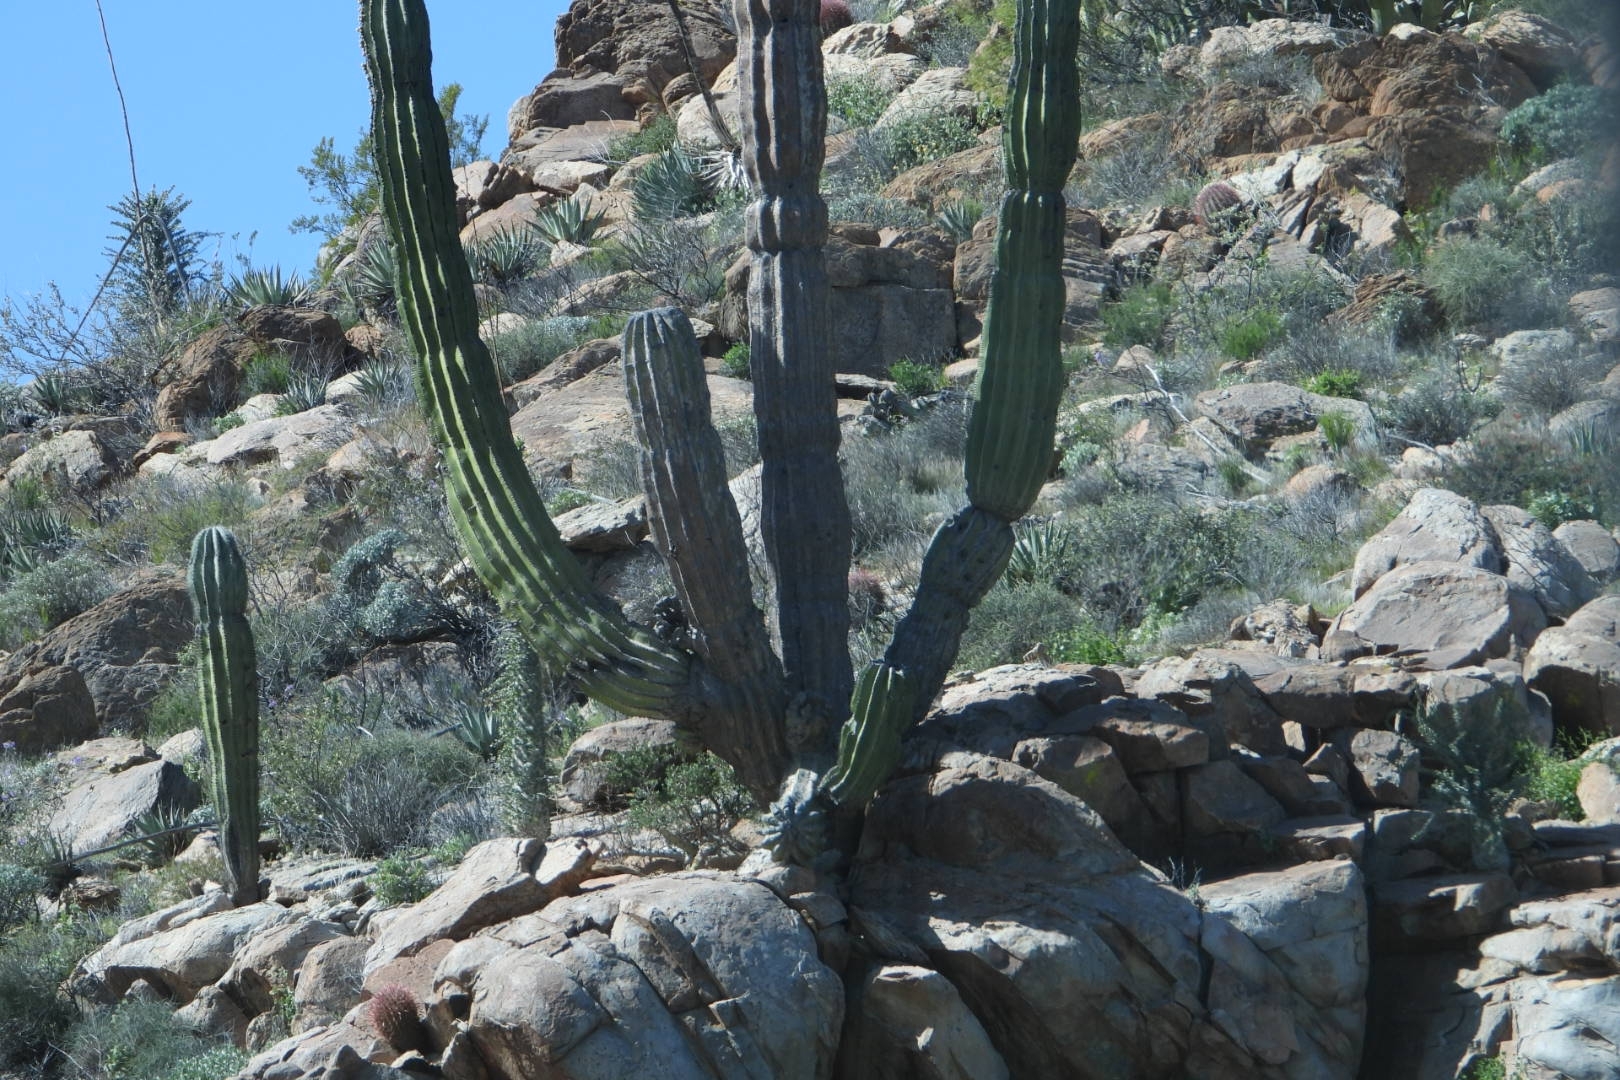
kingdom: Plantae
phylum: Tracheophyta
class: Magnoliopsida
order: Caryophyllales
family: Cactaceae
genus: Pachycereus
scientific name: Pachycereus pringlei
